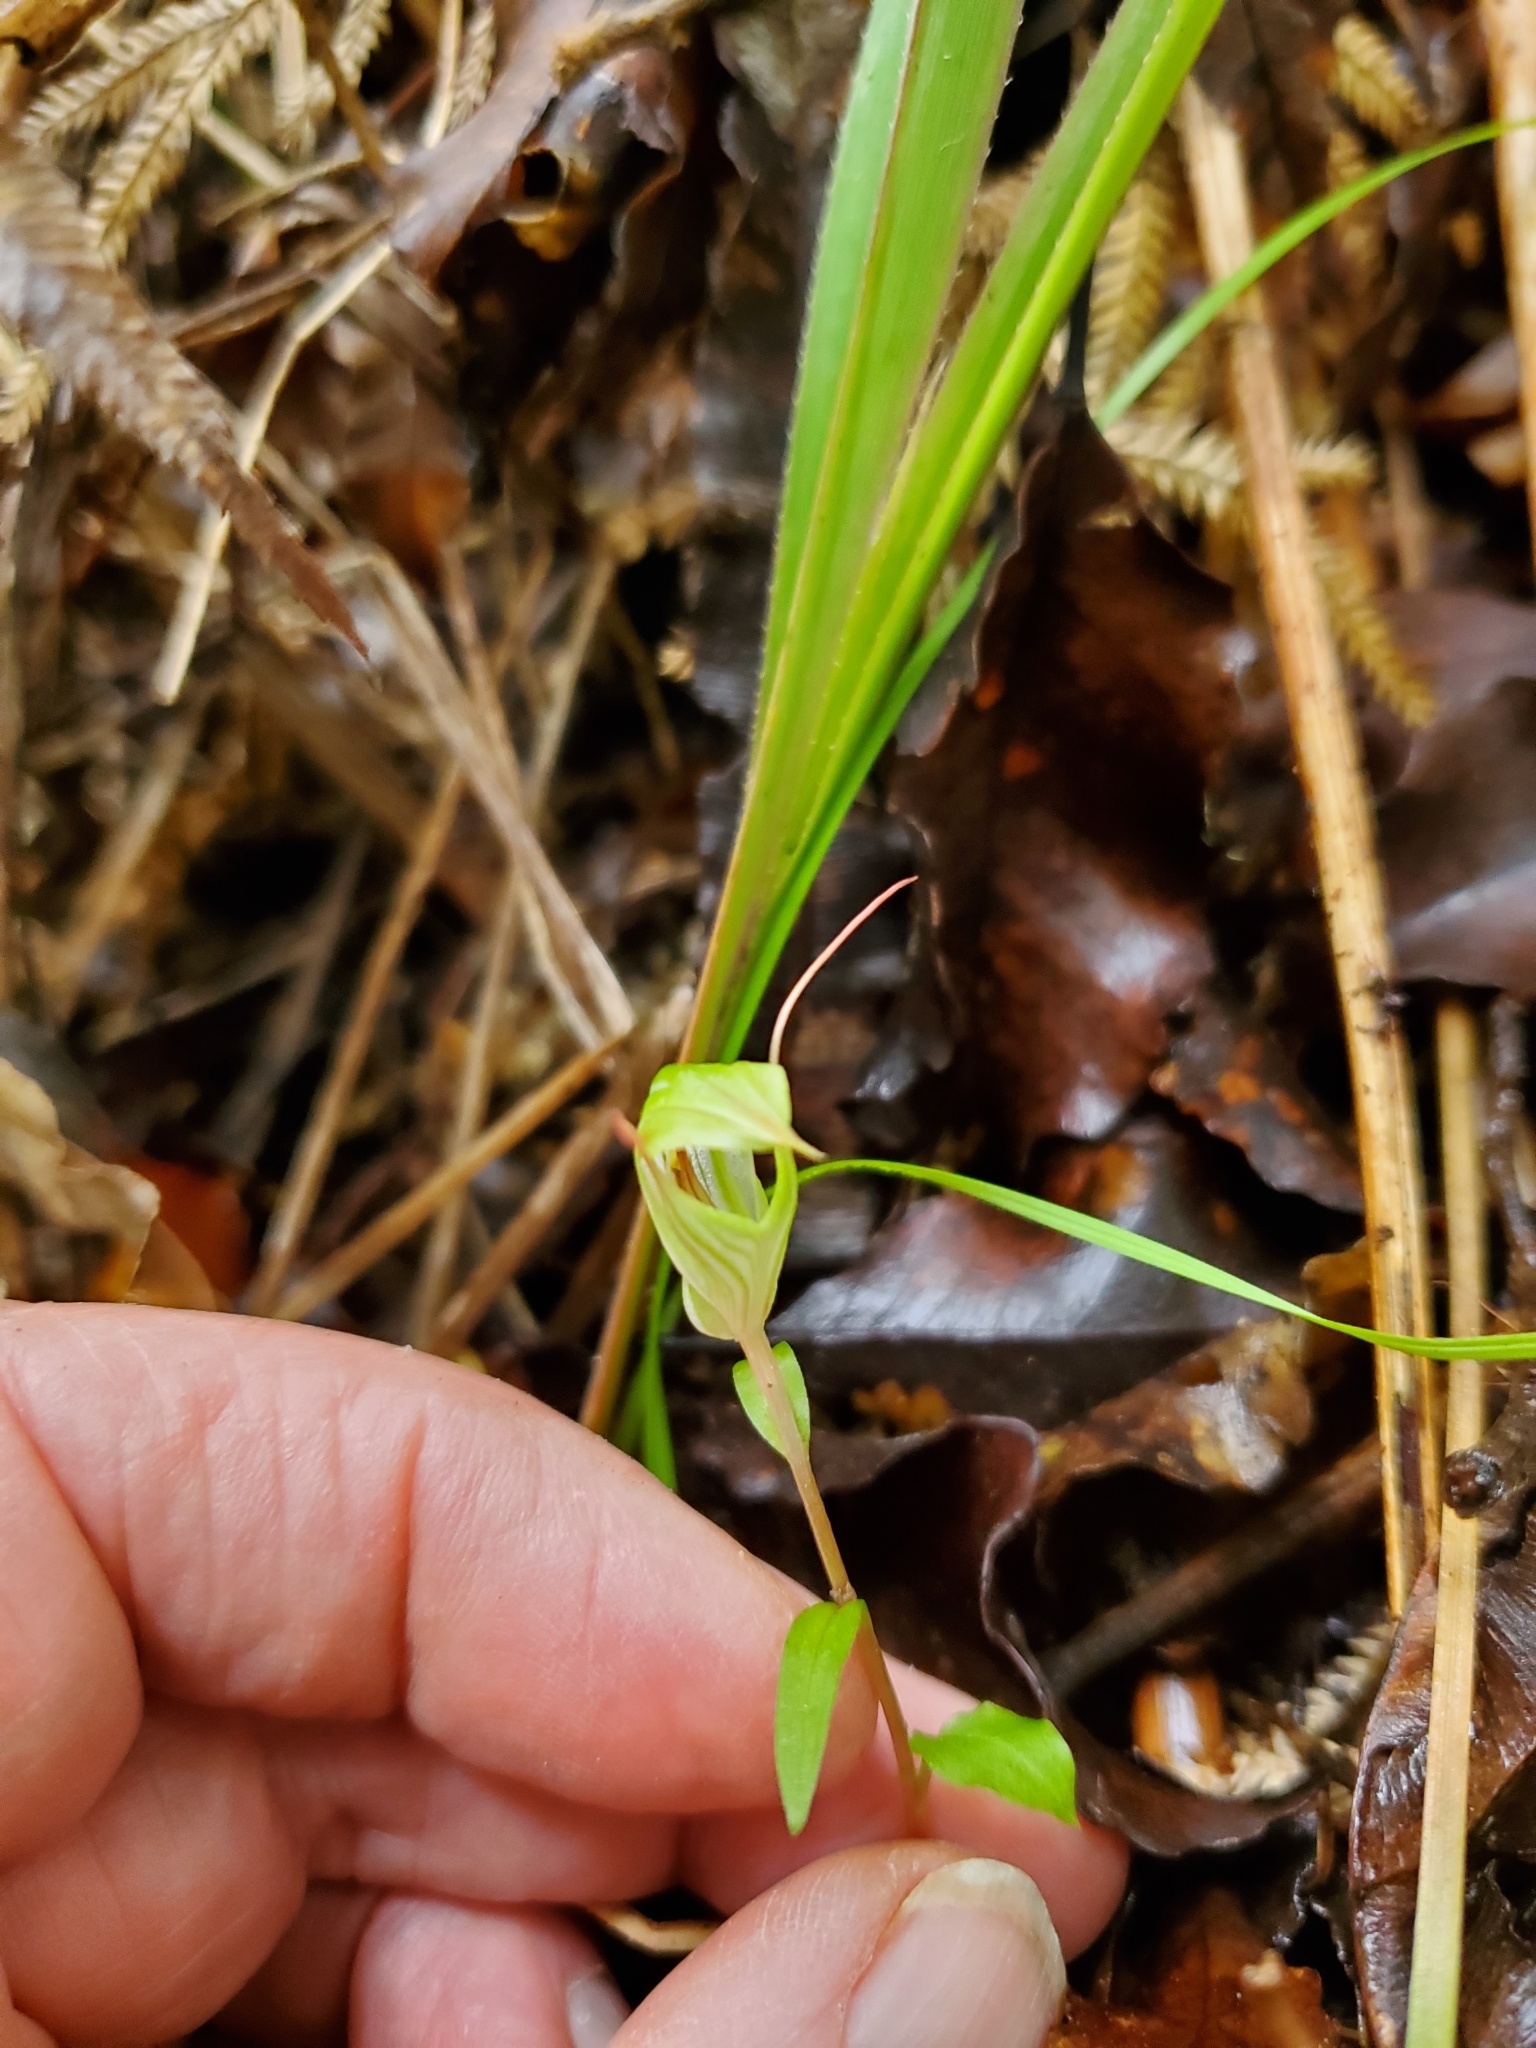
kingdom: Plantae
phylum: Tracheophyta
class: Liliopsida
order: Asparagales
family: Orchidaceae
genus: Pterostylis
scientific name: Pterostylis alobula
